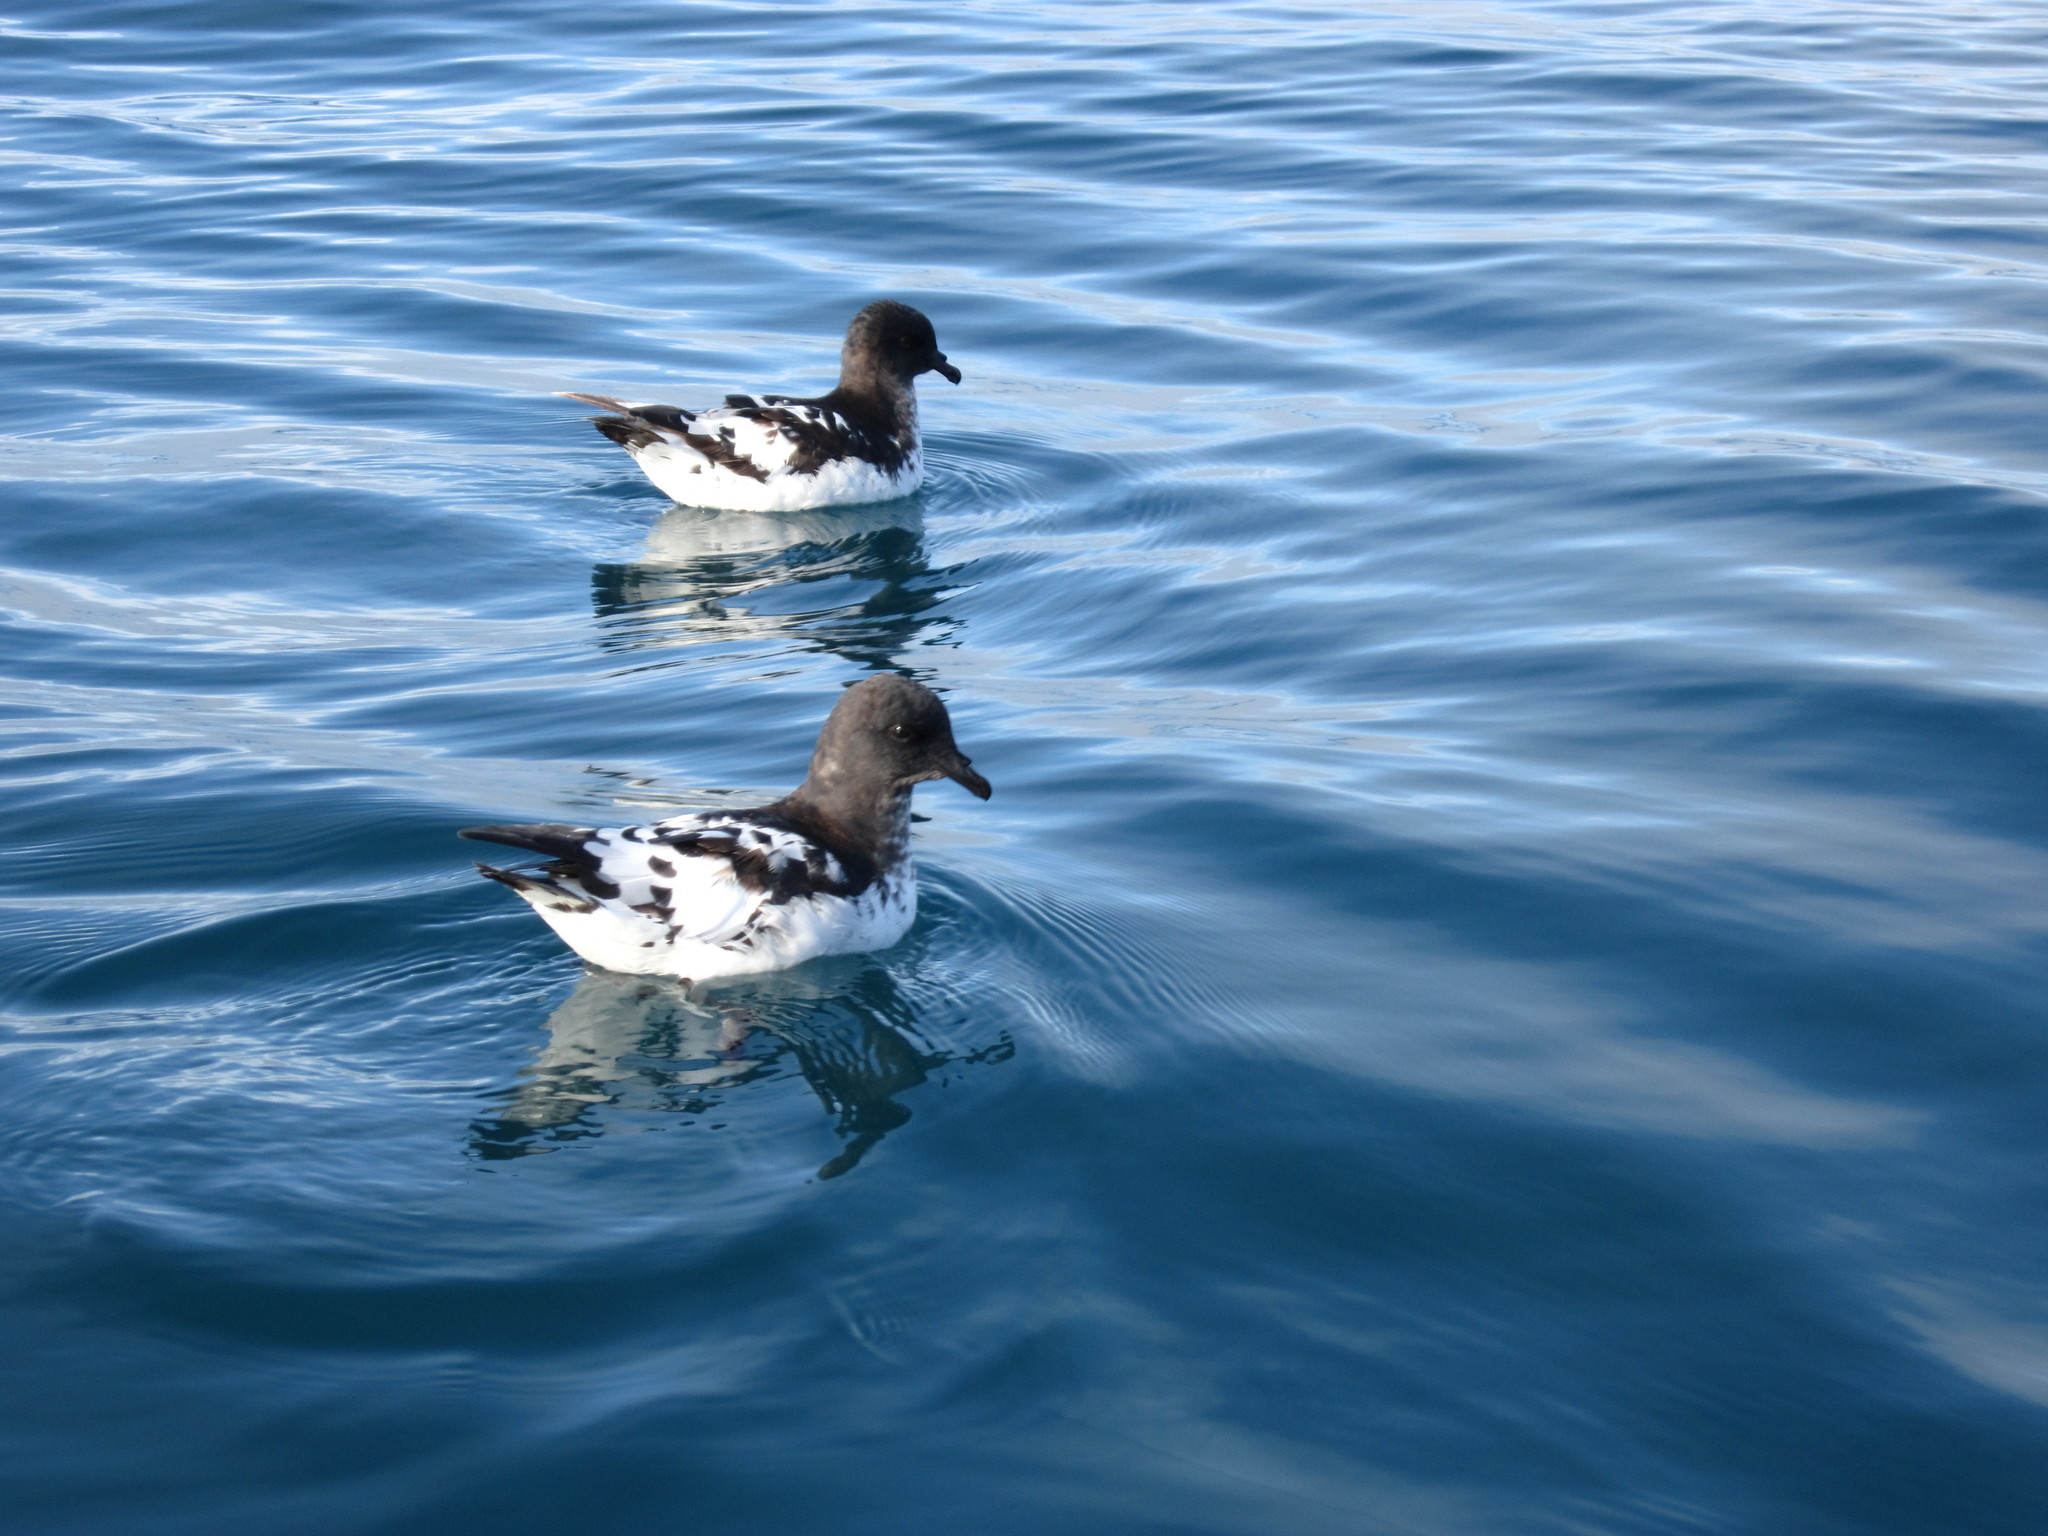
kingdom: Animalia
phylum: Chordata
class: Aves
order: Procellariiformes
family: Procellariidae
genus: Daption
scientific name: Daption capense
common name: Cape petrel
